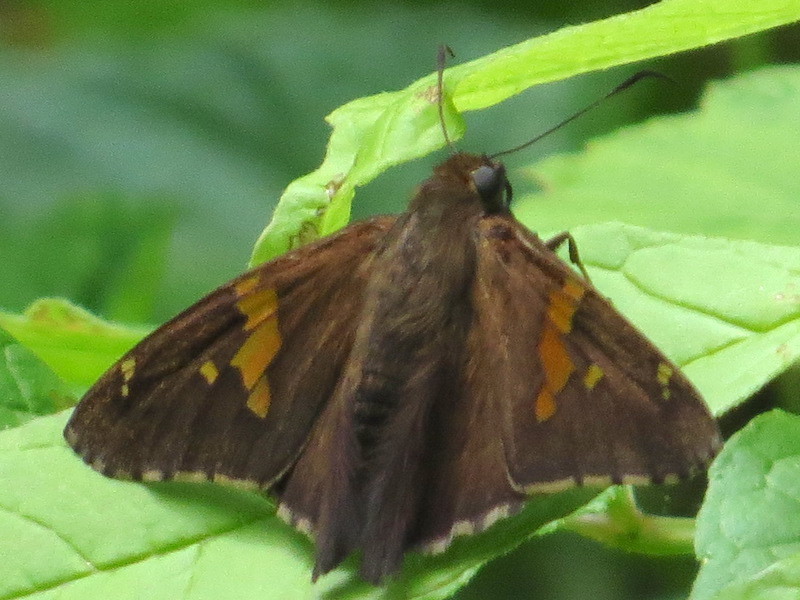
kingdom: Animalia
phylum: Arthropoda
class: Insecta
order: Lepidoptera
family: Hesperiidae
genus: Epargyreus
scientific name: Epargyreus clarus
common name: Silver-spotted skipper
